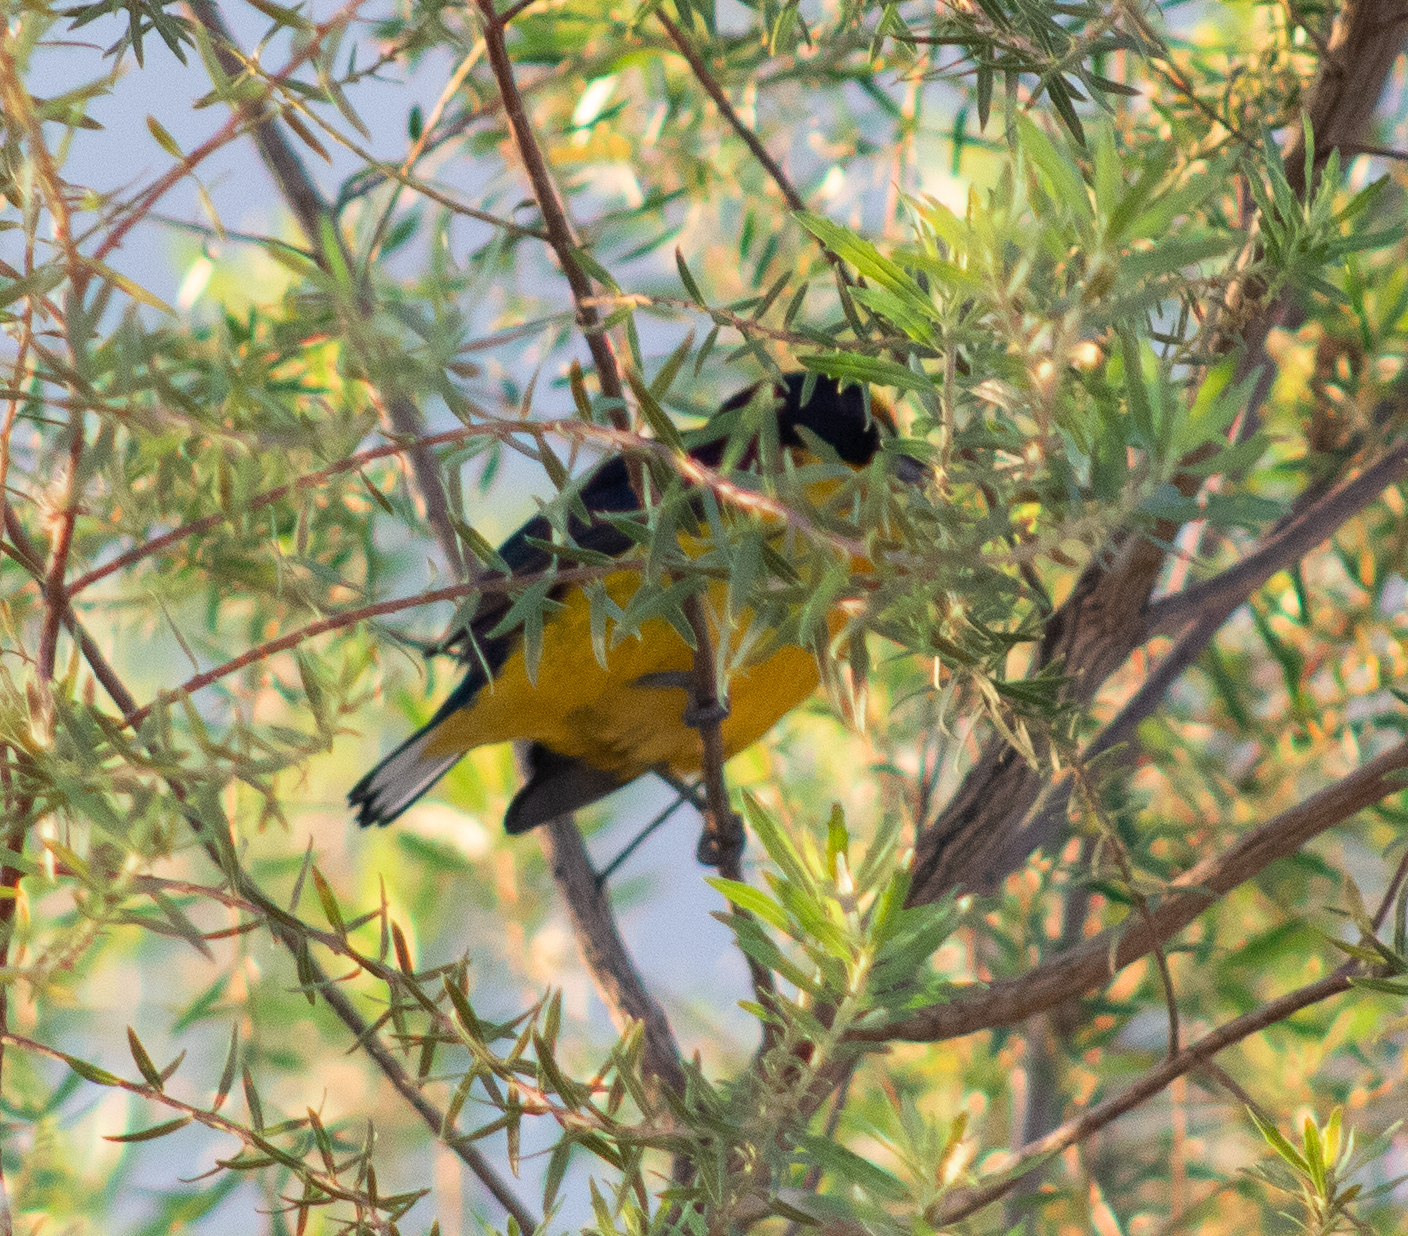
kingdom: Animalia
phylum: Chordata
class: Aves
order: Passeriformes
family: Fringillidae
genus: Euphonia
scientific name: Euphonia violacea
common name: Violaceous euphonia
